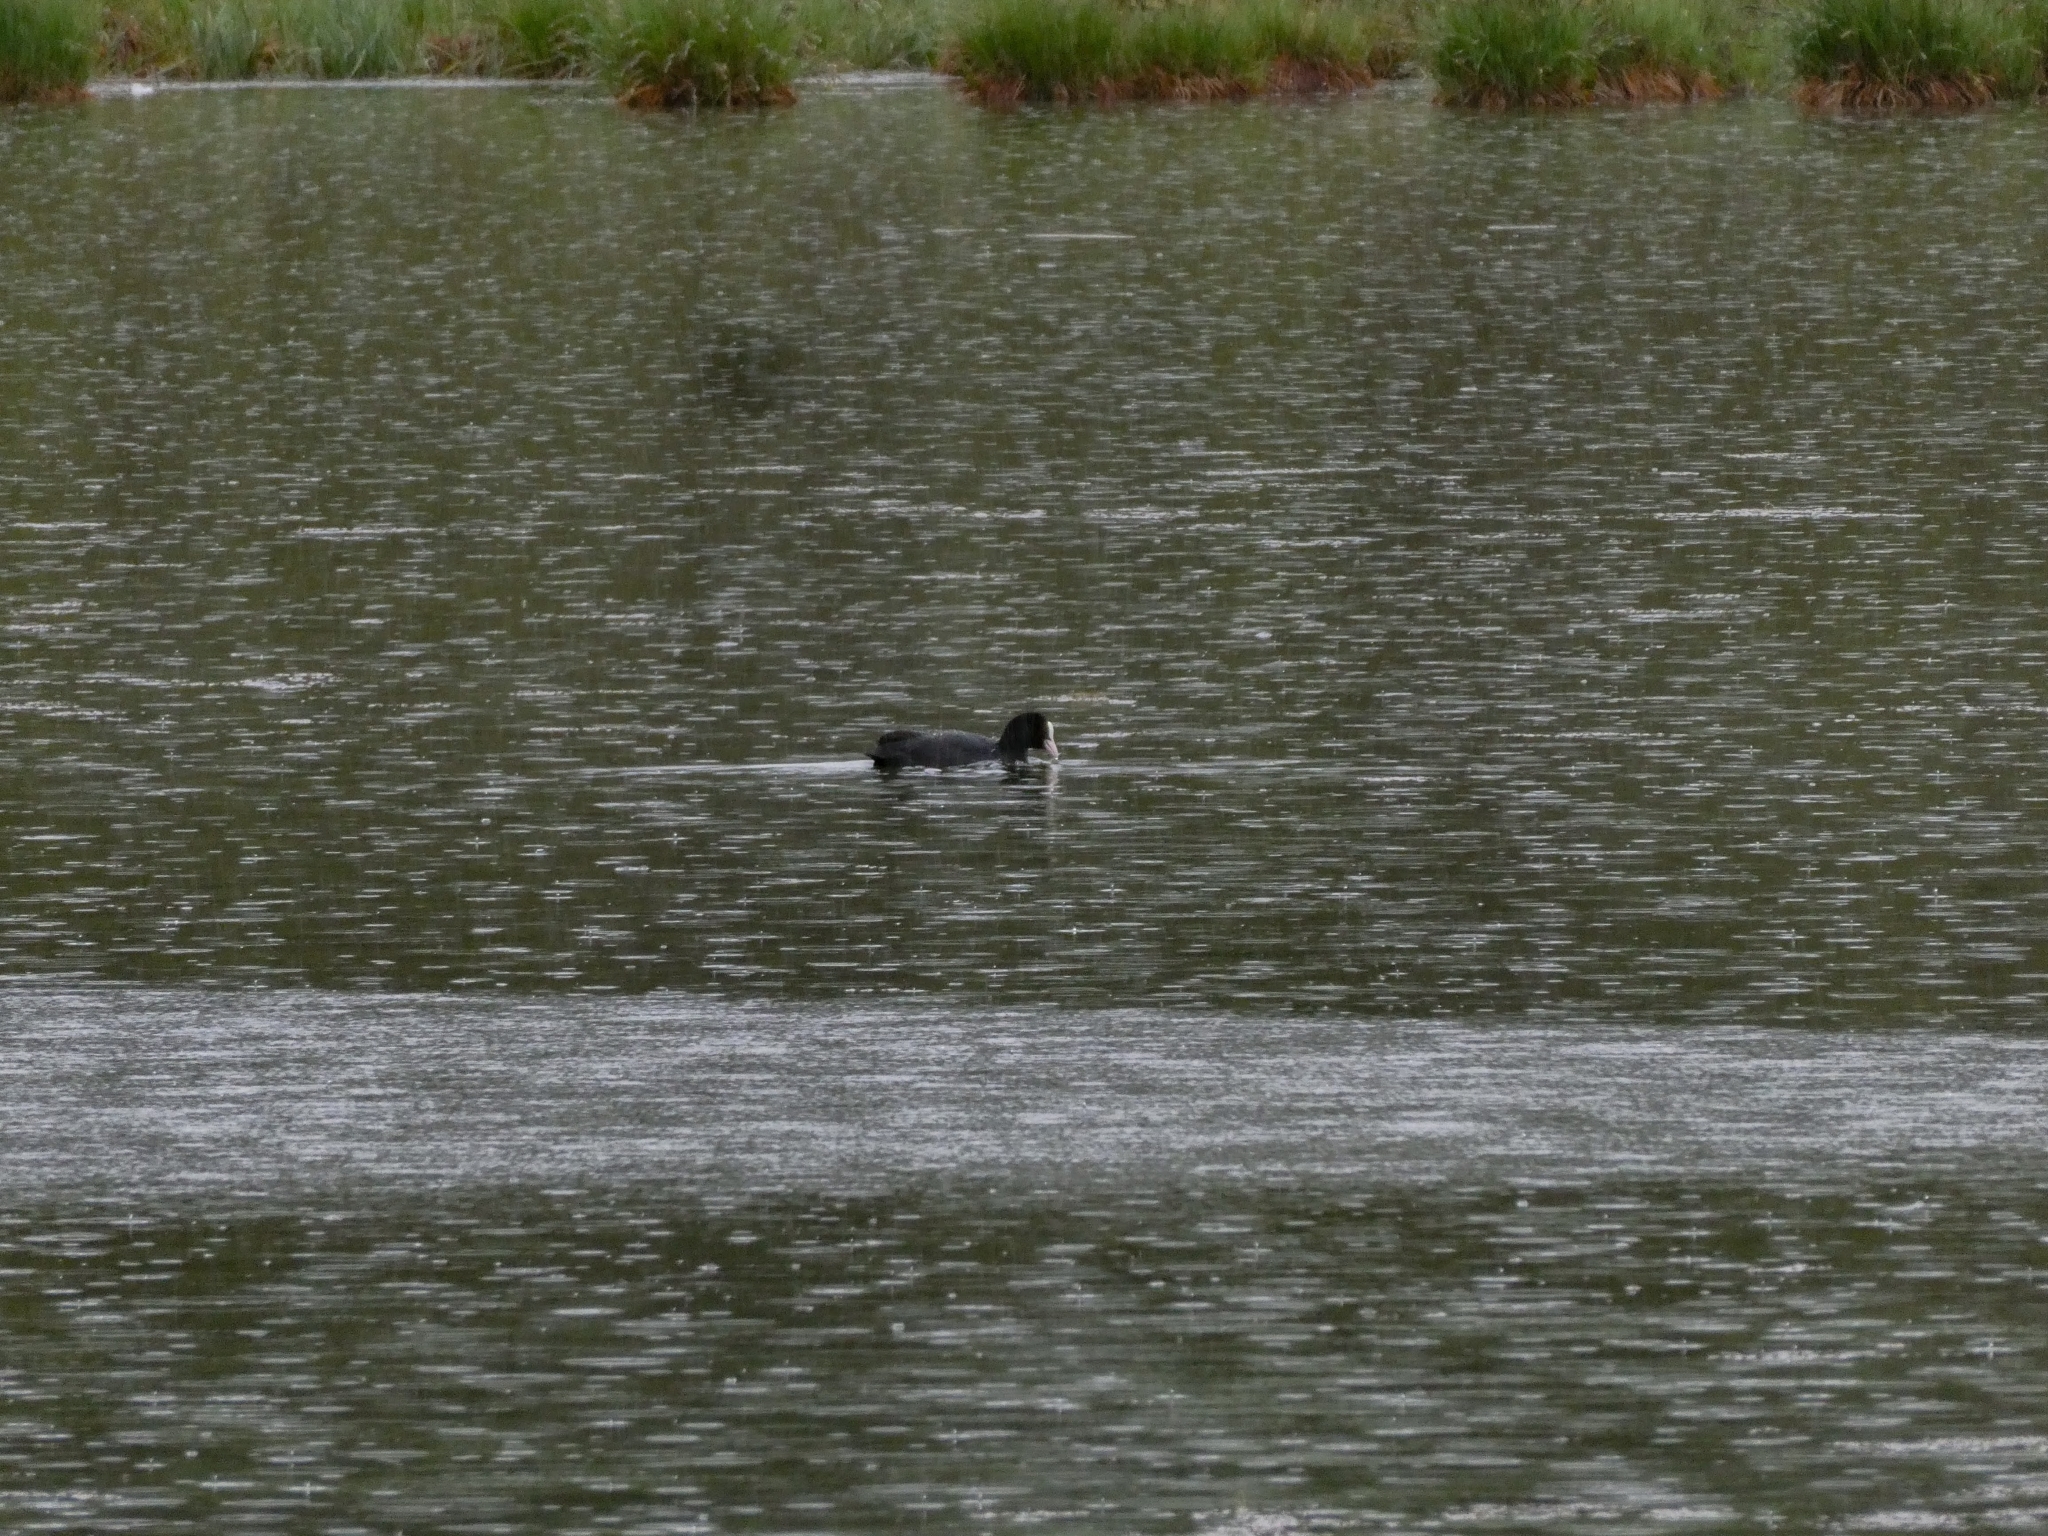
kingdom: Animalia
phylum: Chordata
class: Aves
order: Gruiformes
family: Rallidae
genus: Fulica
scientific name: Fulica atra
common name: Eurasian coot
